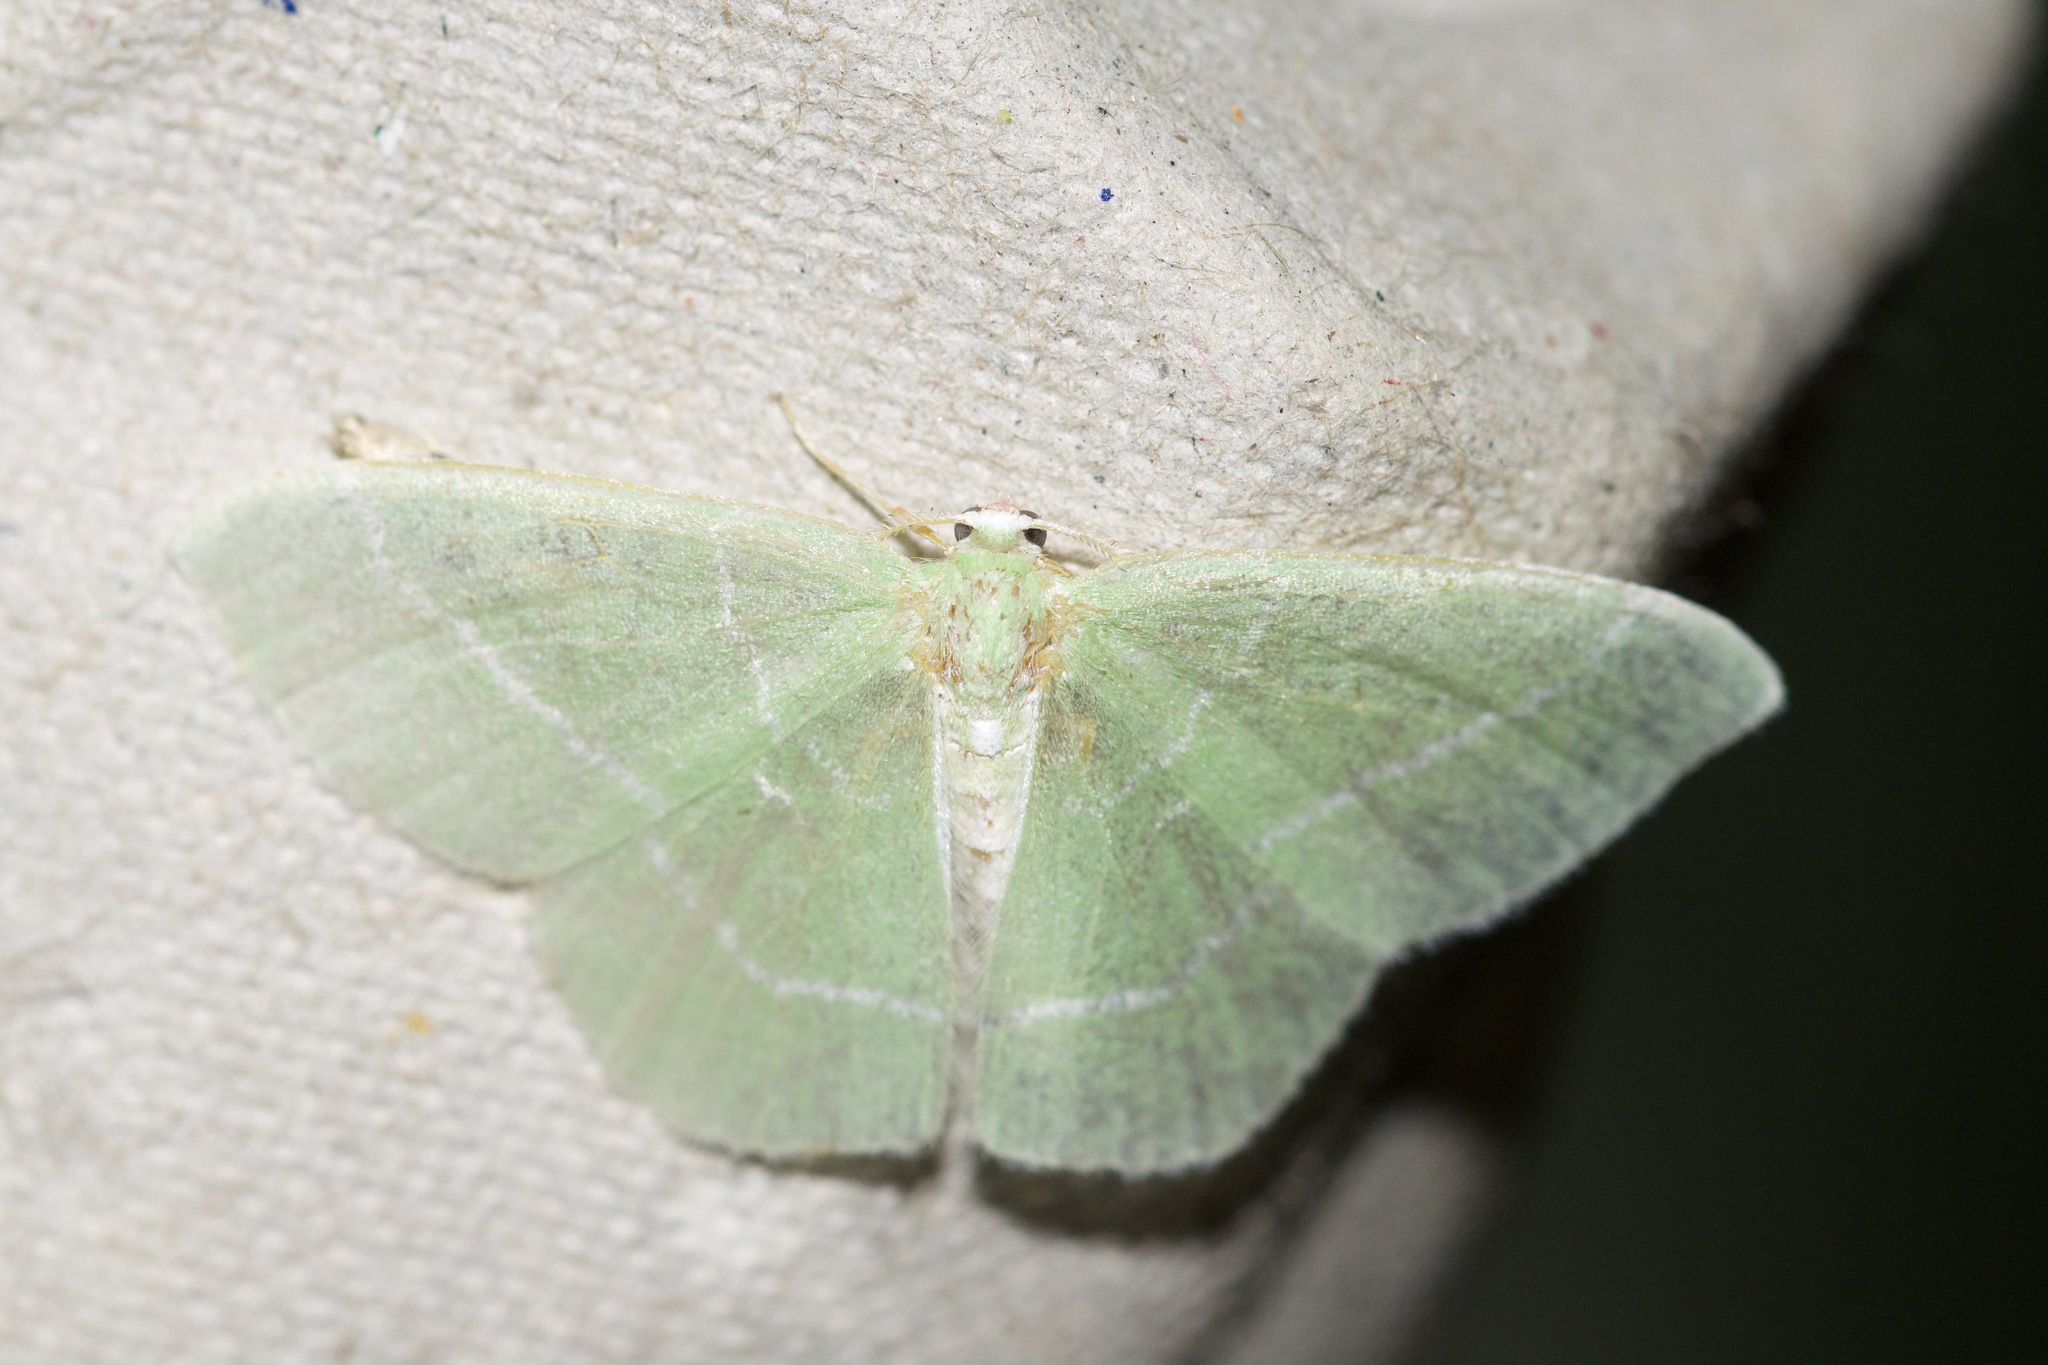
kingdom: Animalia
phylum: Arthropoda
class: Insecta
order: Lepidoptera
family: Geometridae
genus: Nemoria
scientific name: Nemoria mimosaria
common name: White-fringed emerald
